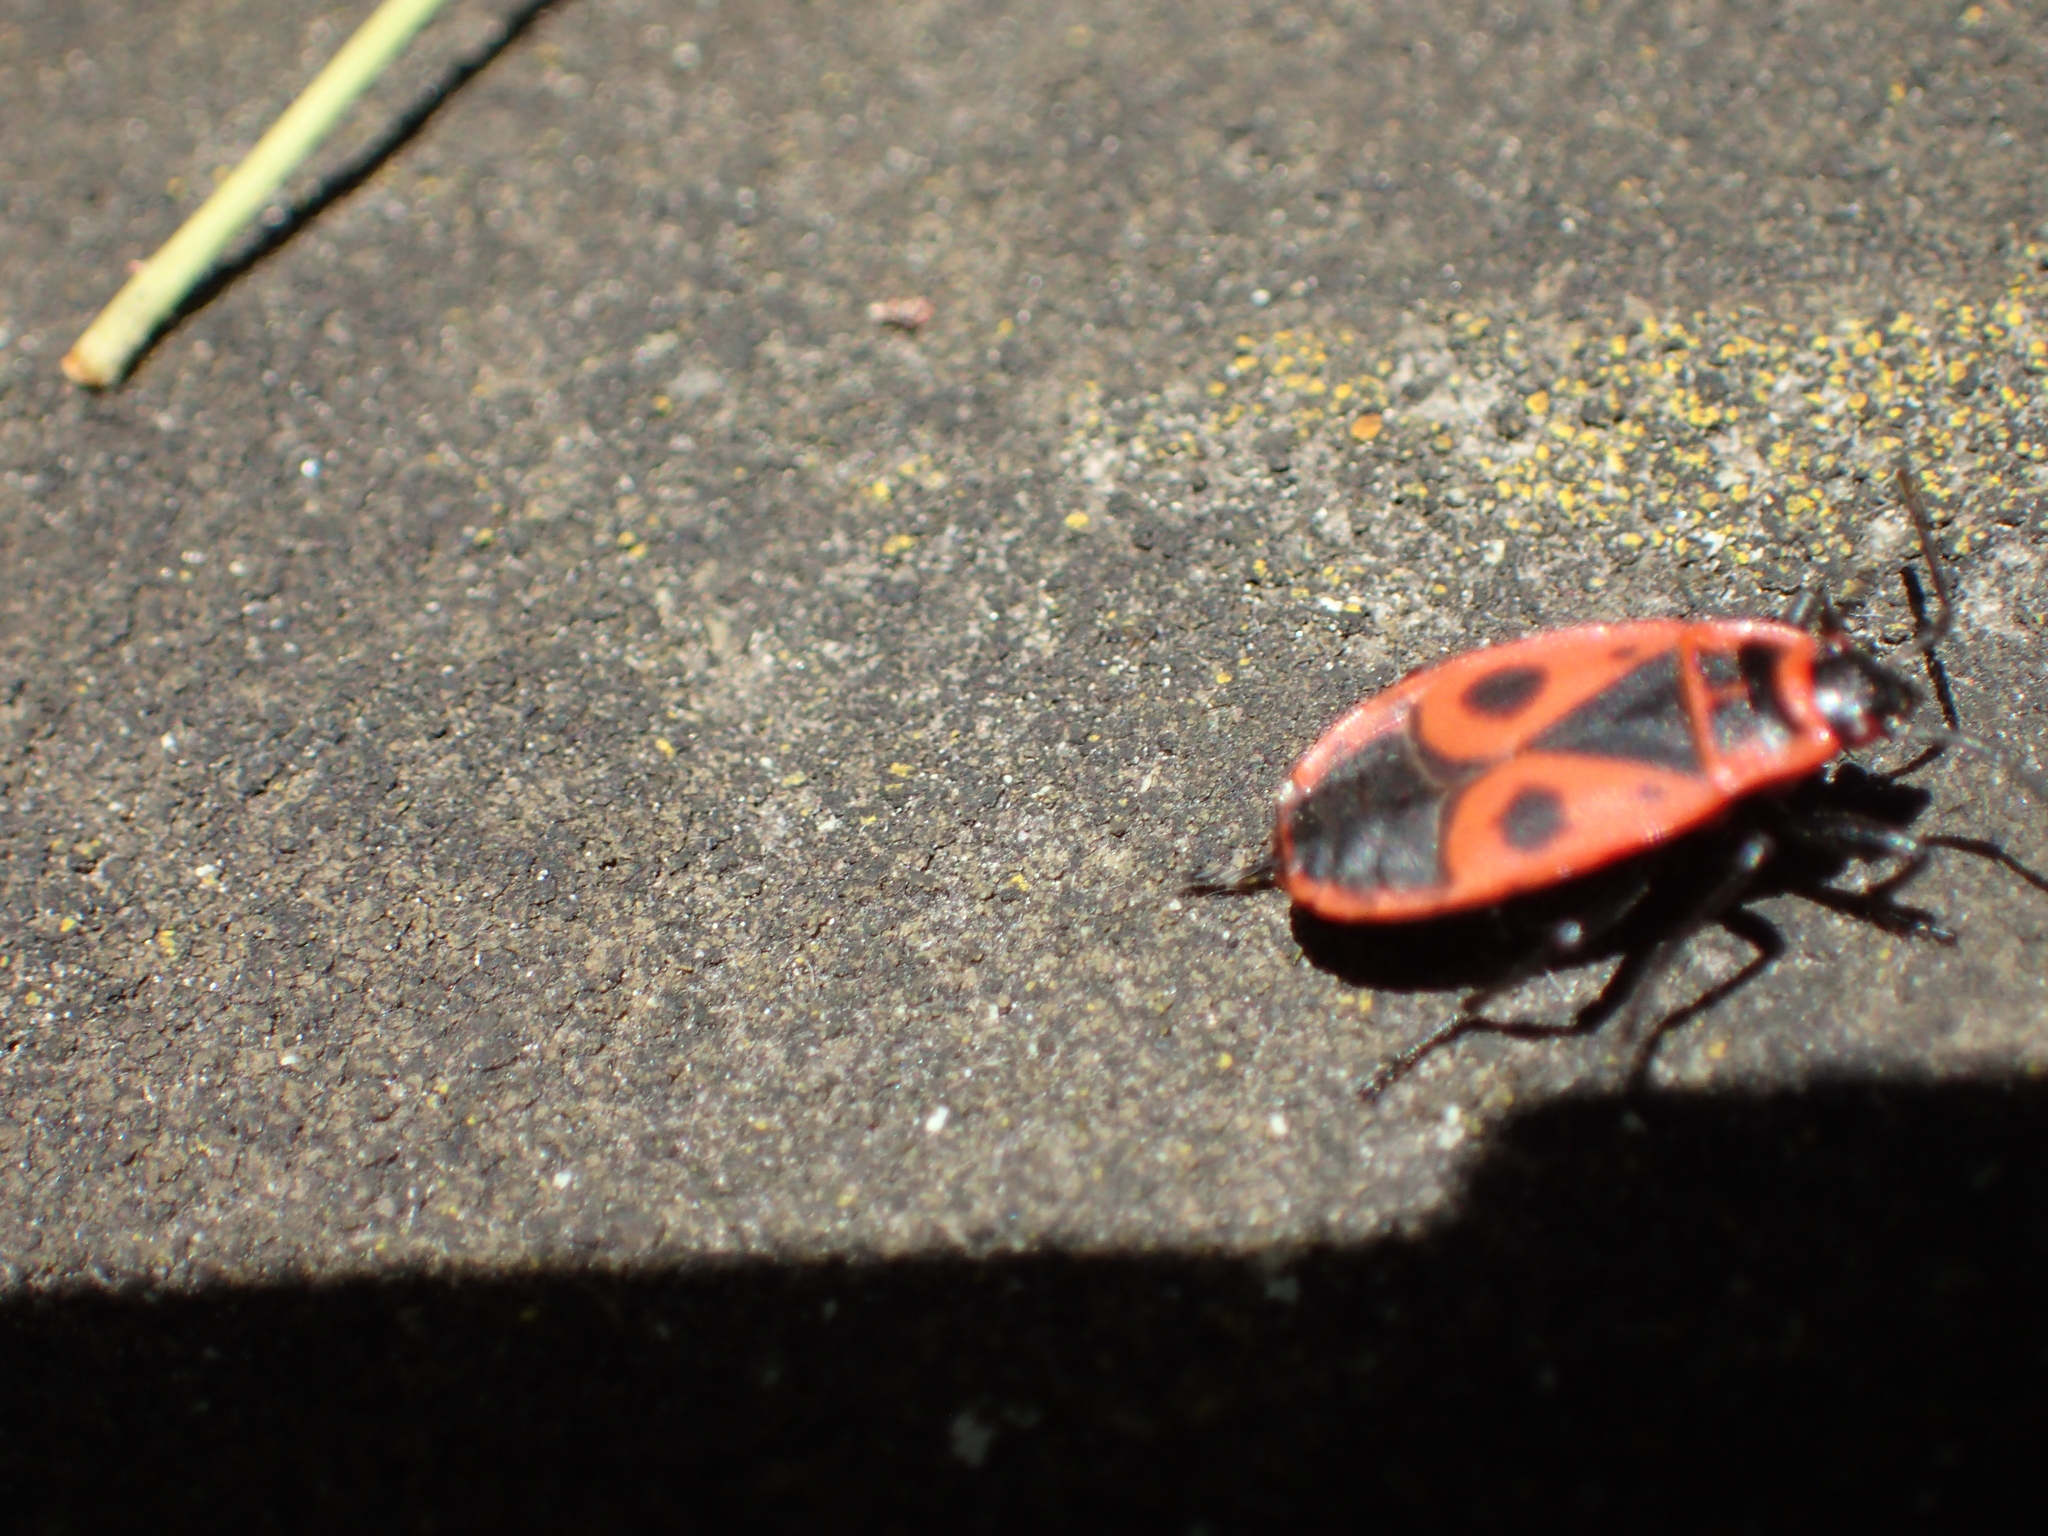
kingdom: Animalia
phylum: Arthropoda
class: Insecta
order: Hemiptera
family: Pyrrhocoridae
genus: Pyrrhocoris
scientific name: Pyrrhocoris apterus
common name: Firebug
